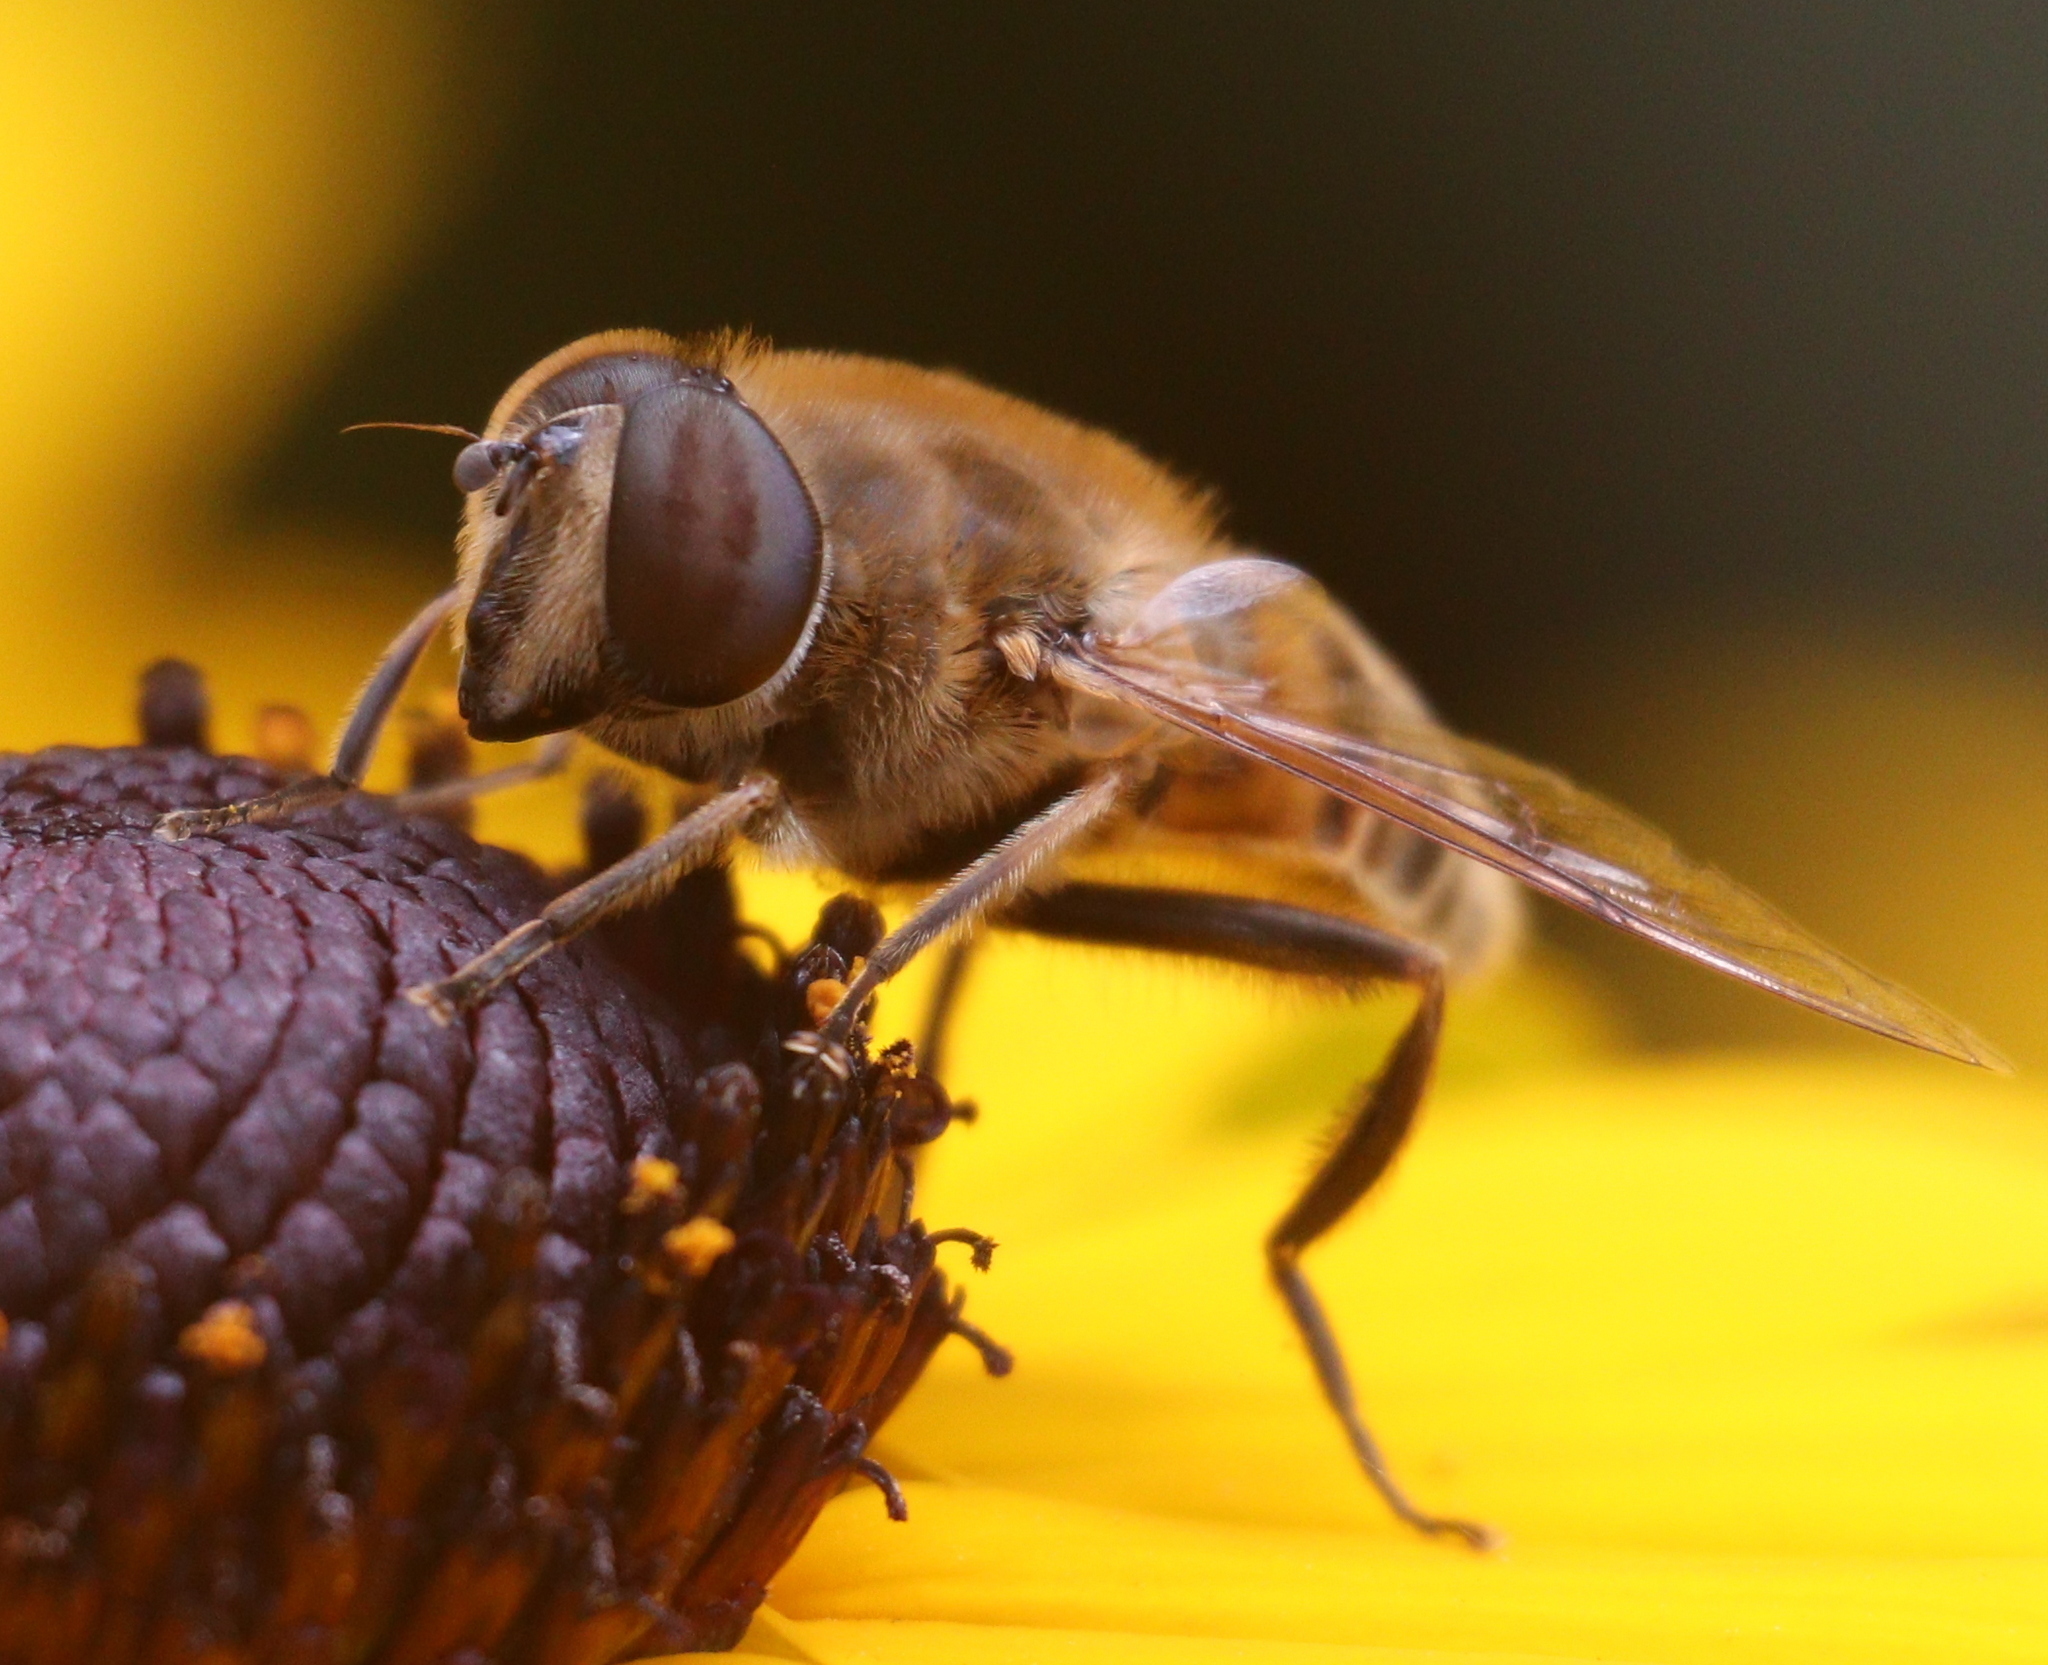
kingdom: Animalia
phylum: Arthropoda
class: Insecta
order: Diptera
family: Syrphidae
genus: Eristalis
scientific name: Eristalis tenax
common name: Drone fly
